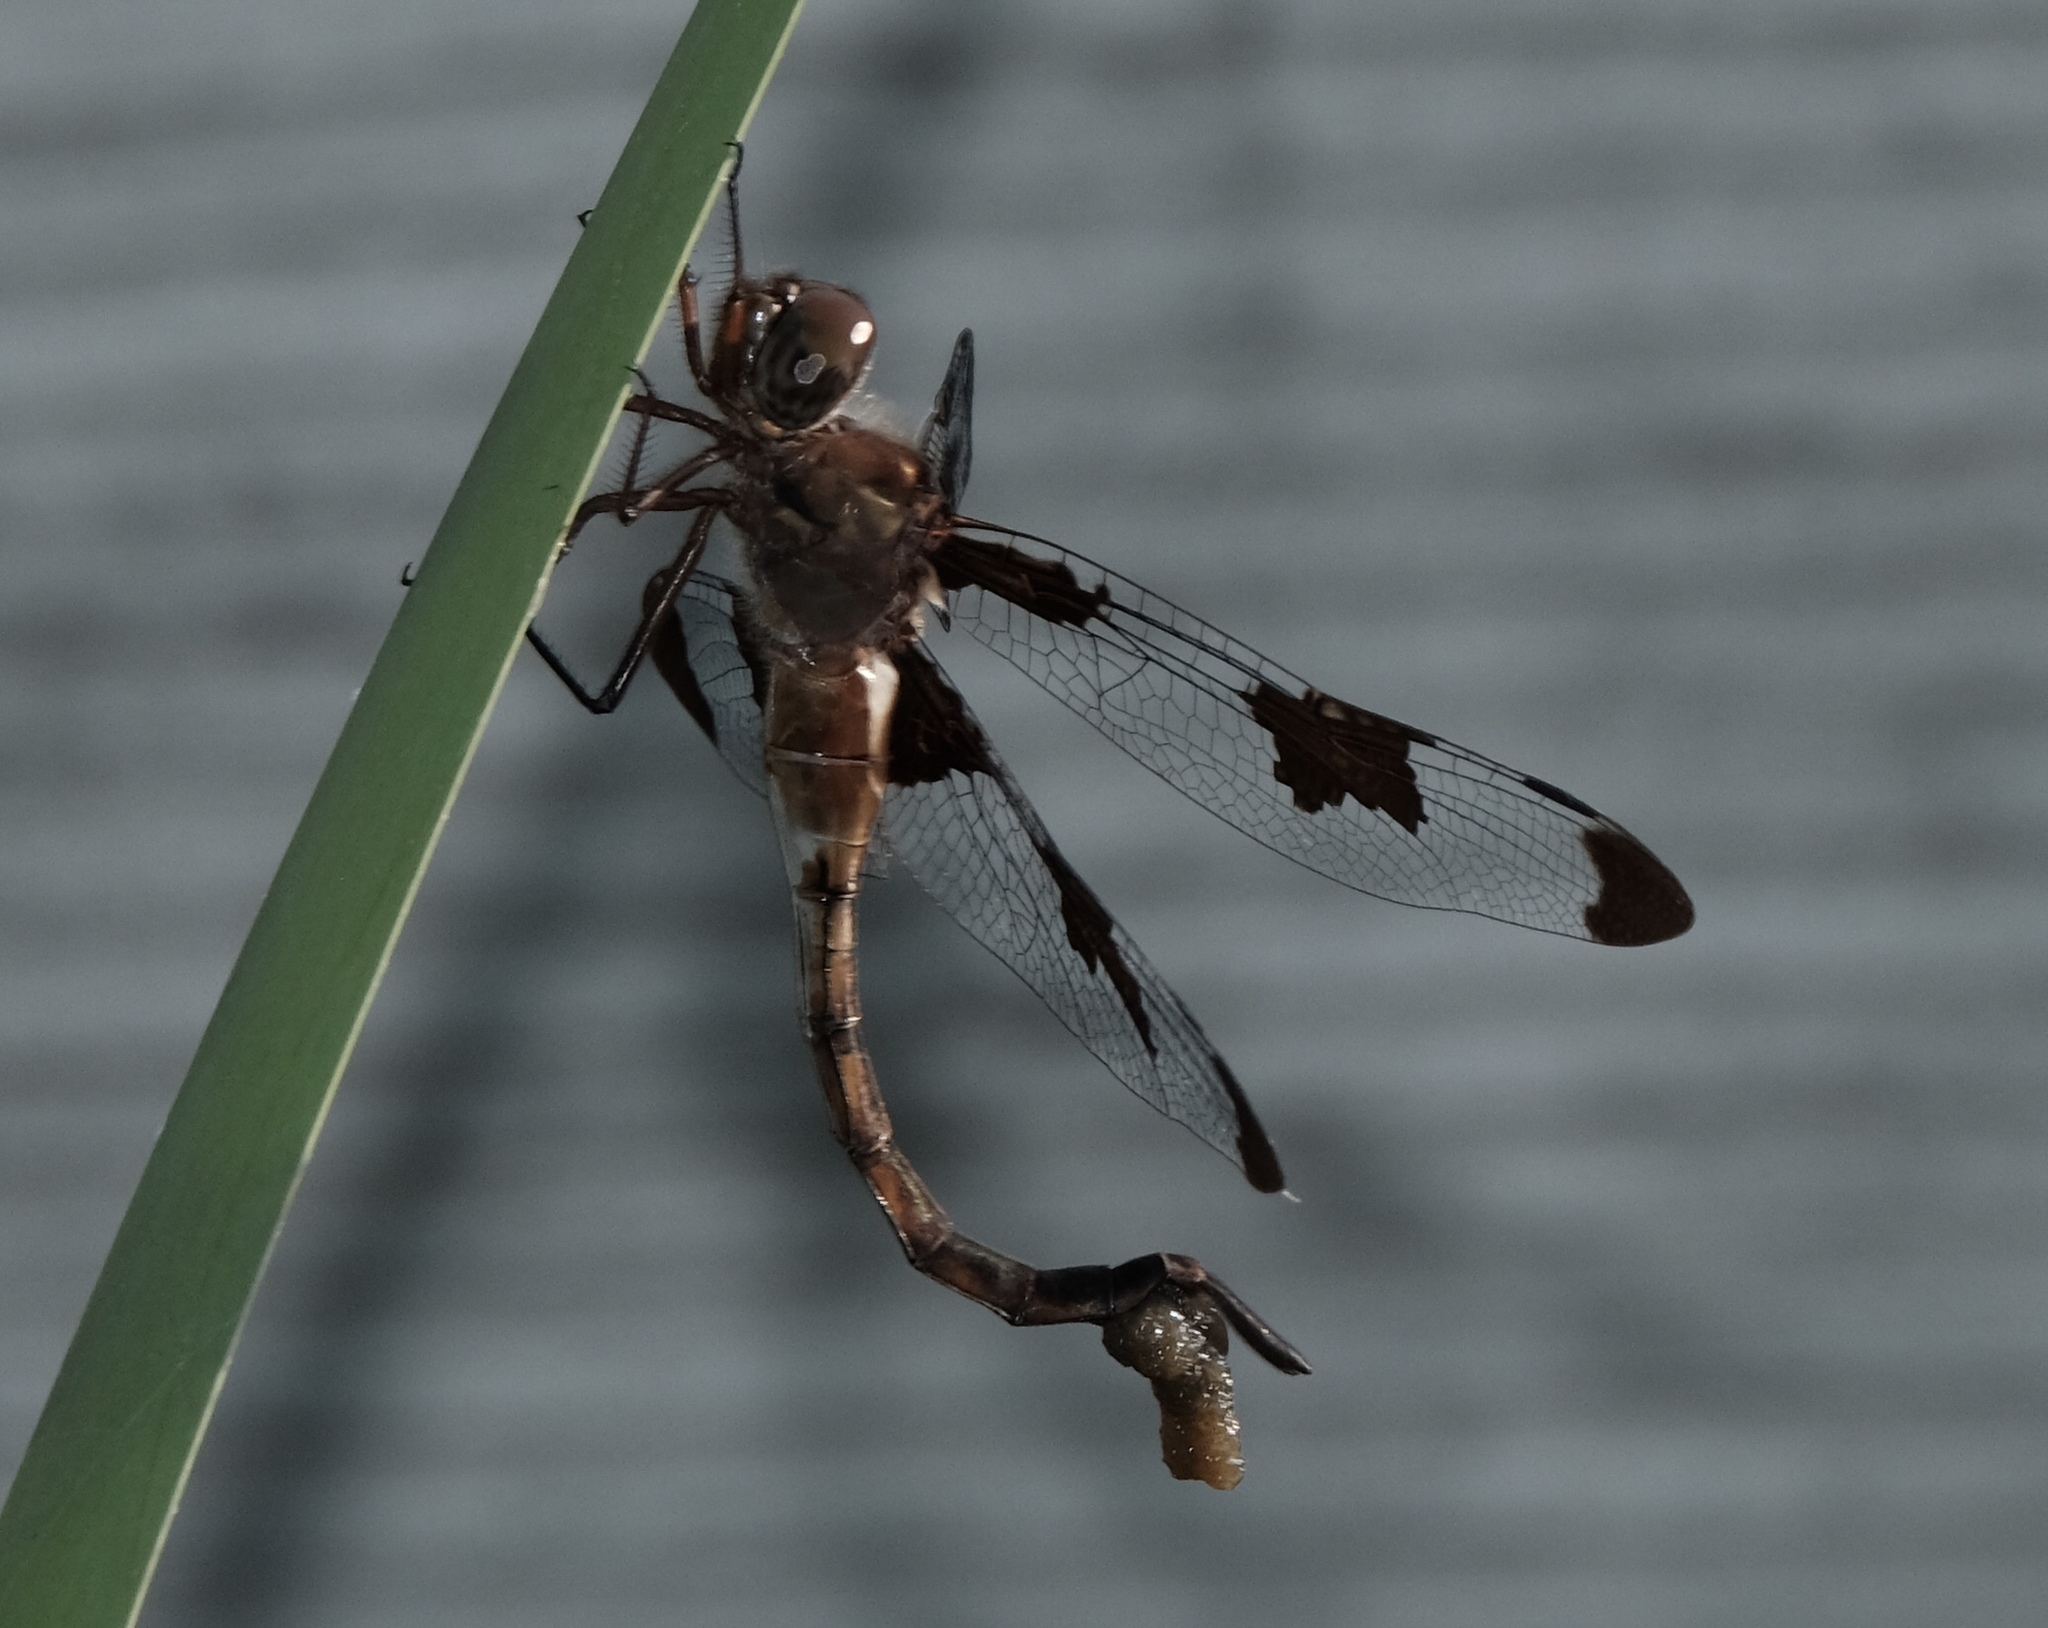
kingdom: Animalia
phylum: Arthropoda
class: Insecta
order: Odonata
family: Corduliidae
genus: Epitheca
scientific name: Epitheca princeps
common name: Prince baskettail
